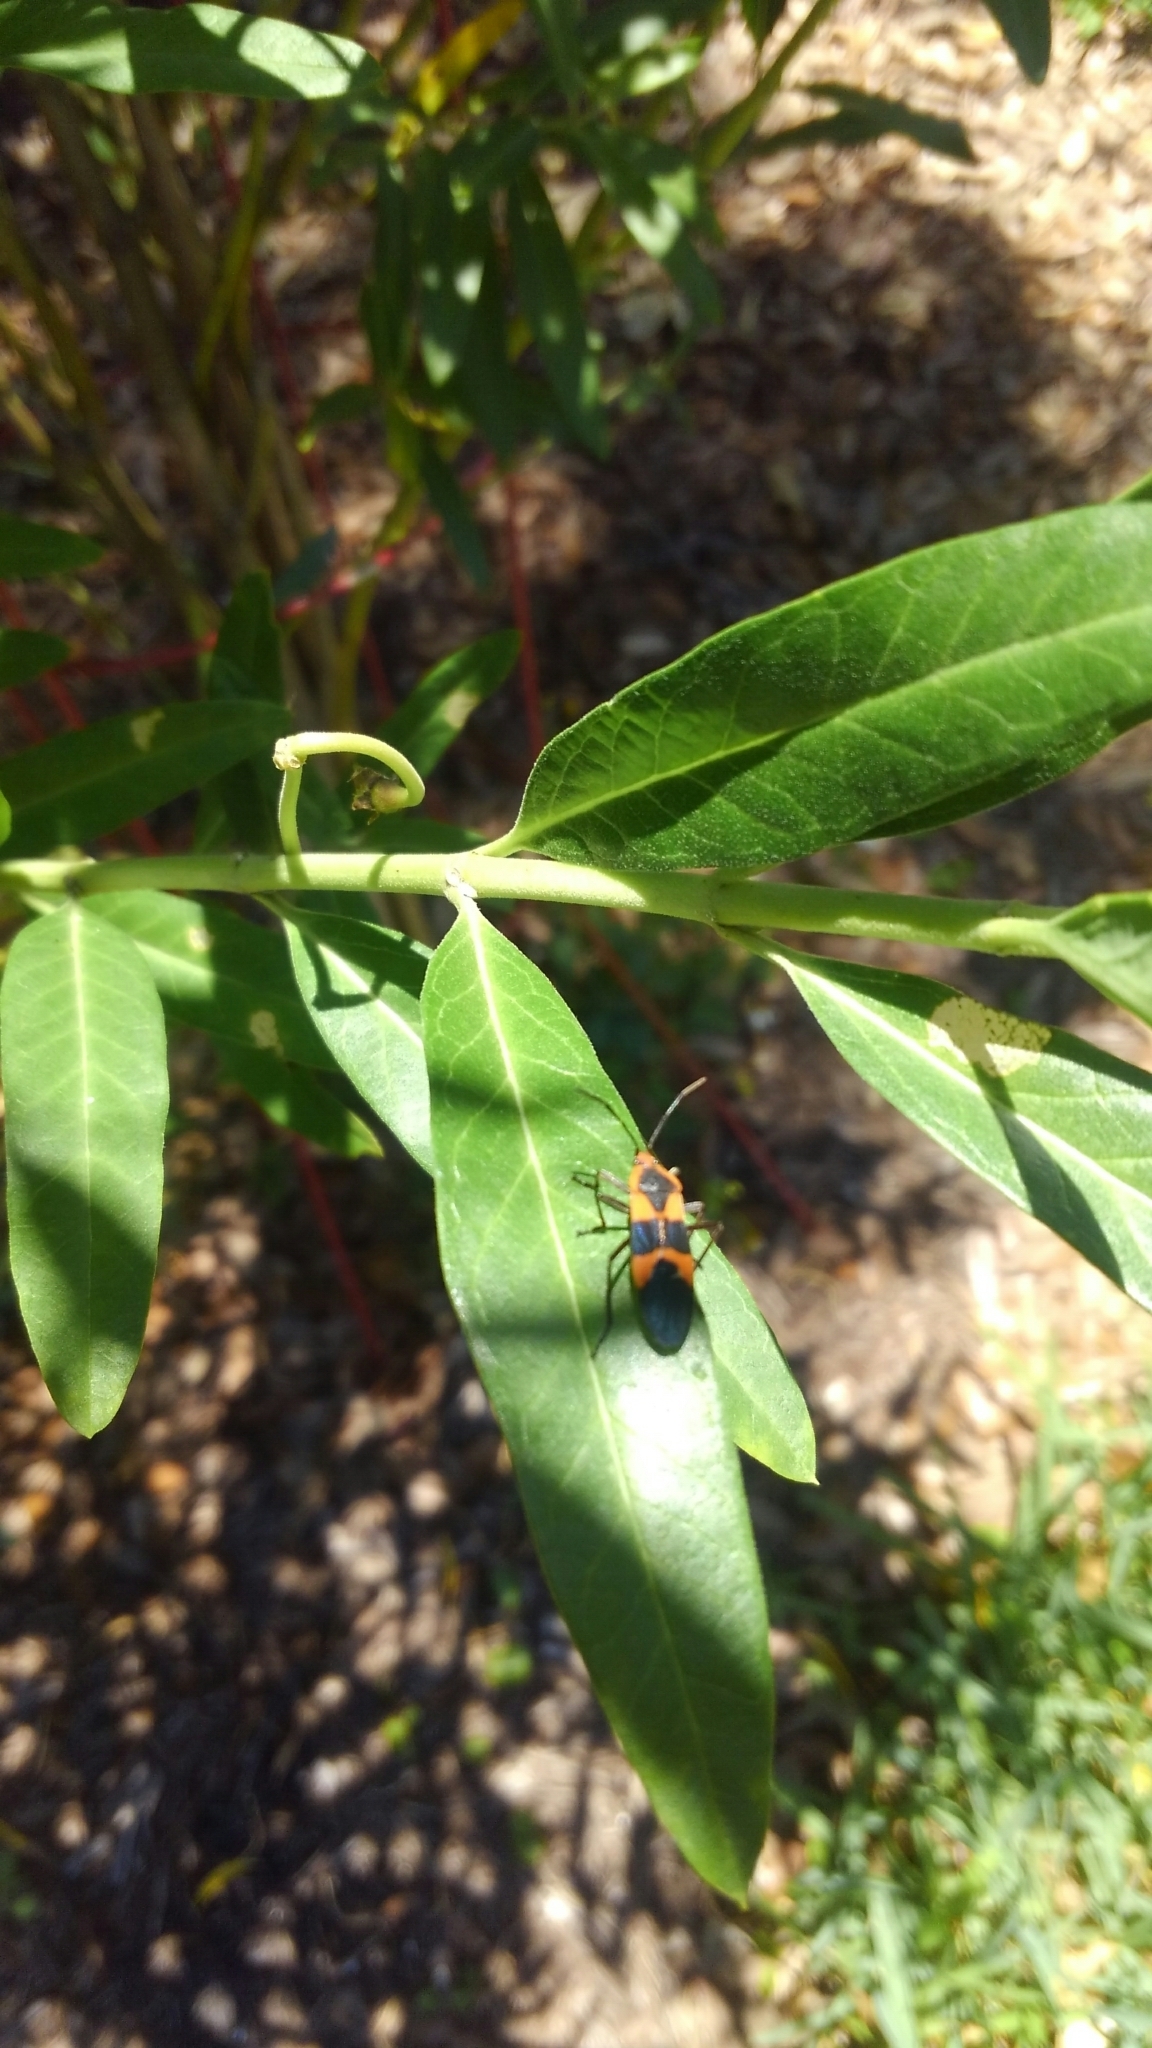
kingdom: Animalia
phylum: Arthropoda
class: Insecta
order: Hemiptera
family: Lygaeidae
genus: Oncopeltus
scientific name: Oncopeltus fasciatus
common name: Large milkweed bug
